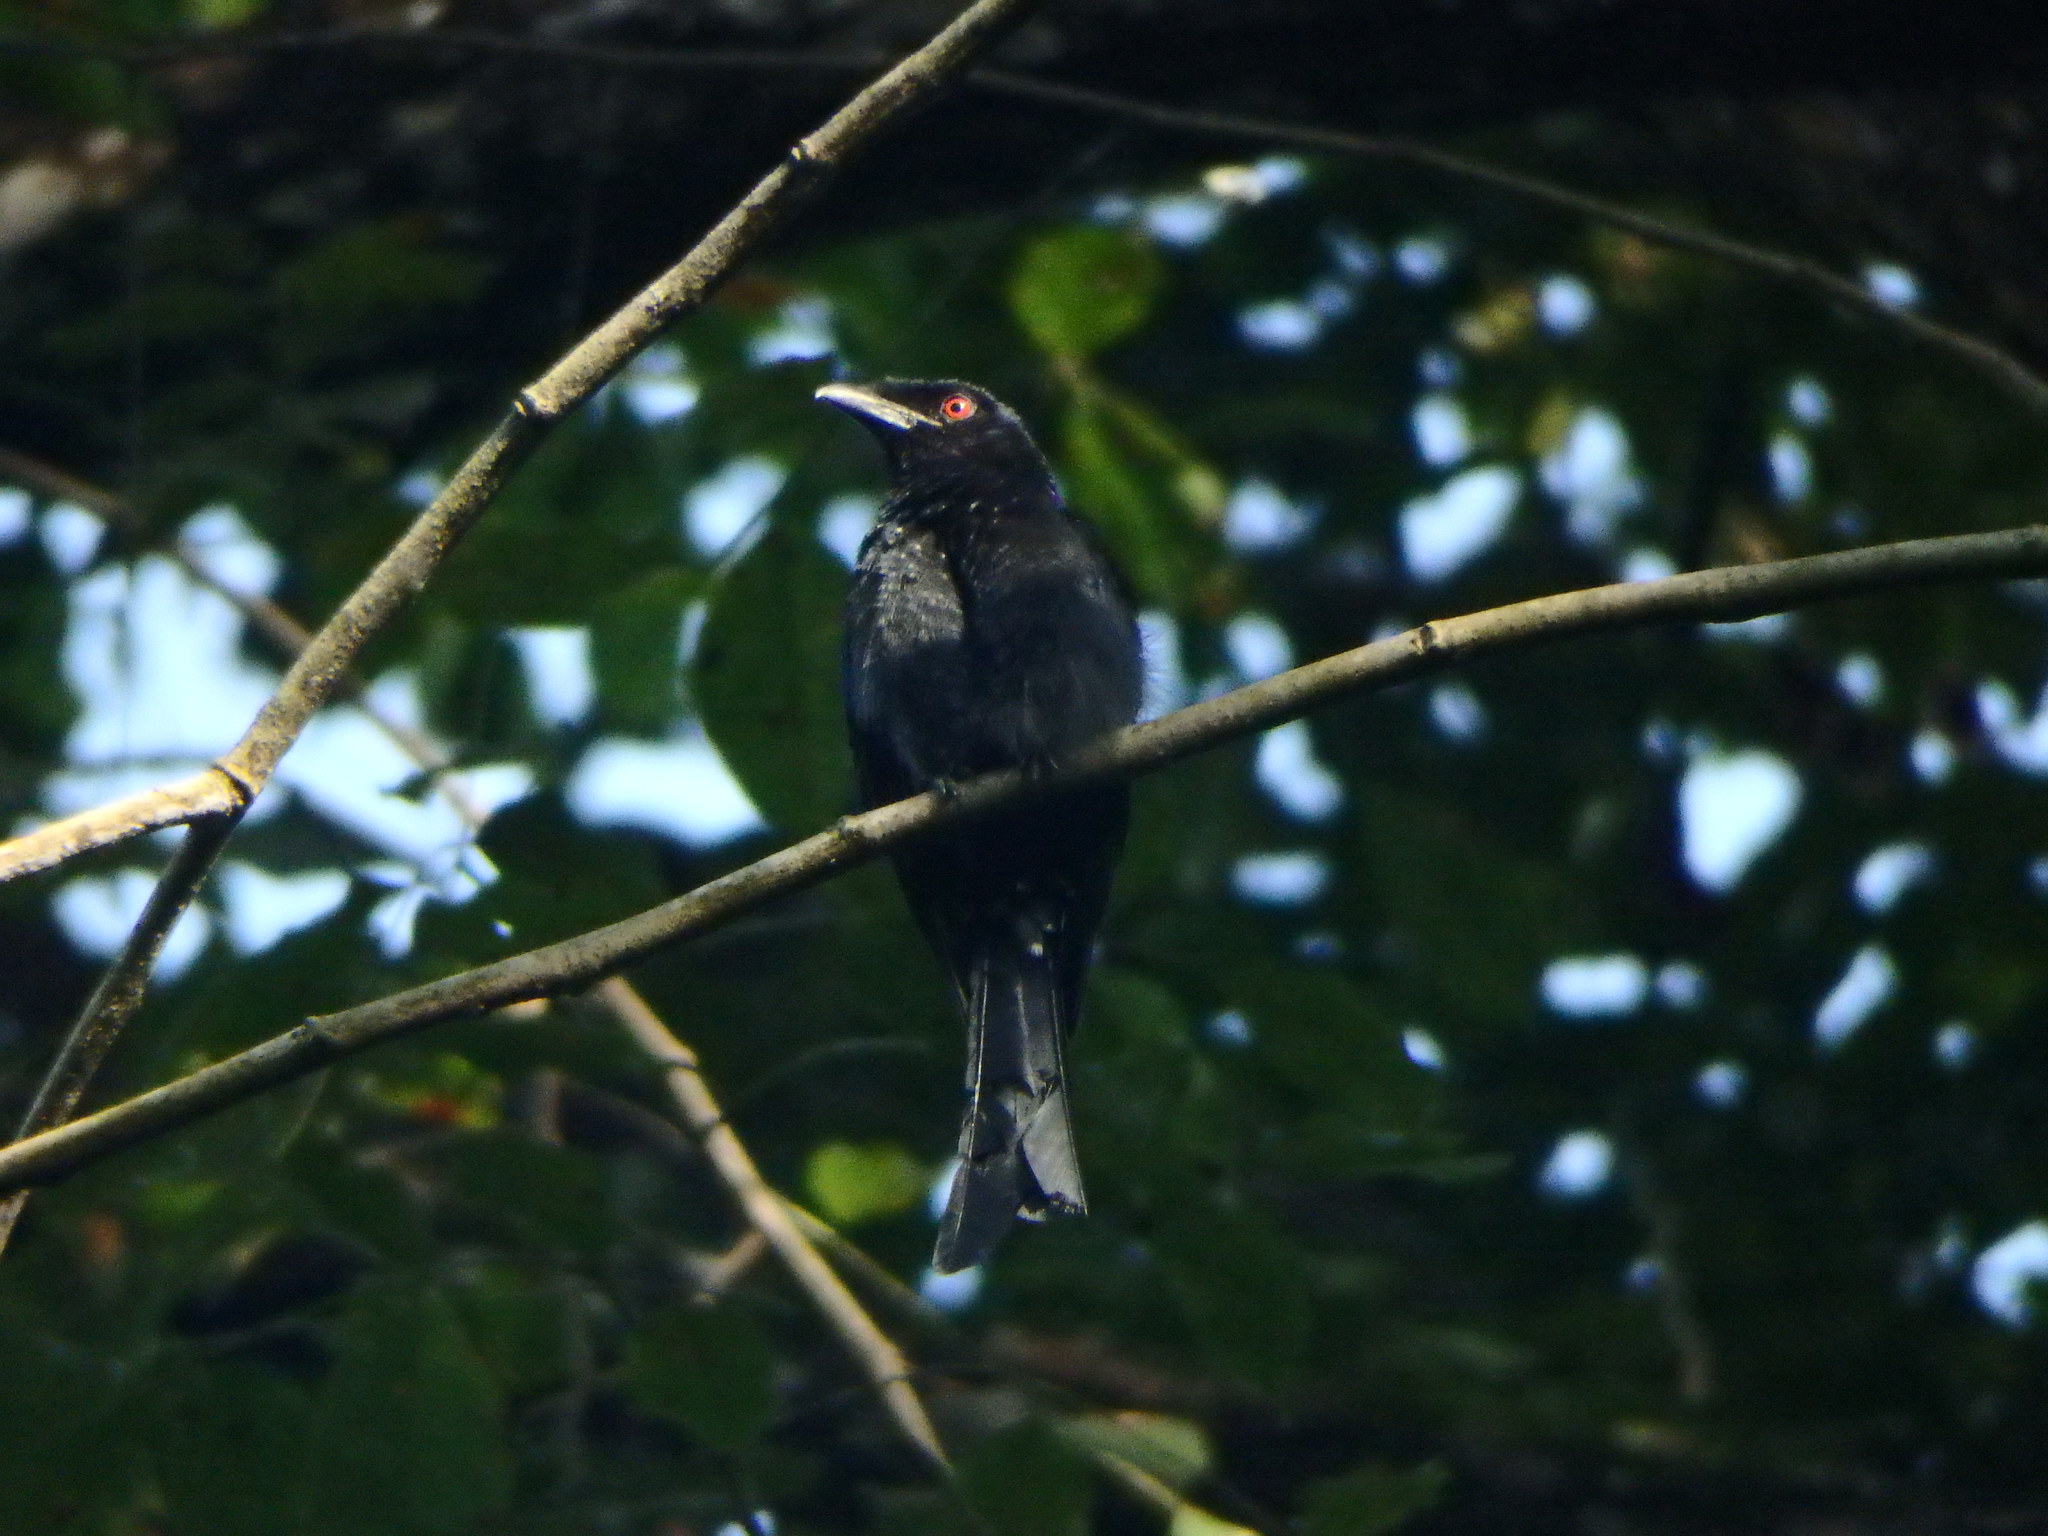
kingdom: Animalia
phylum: Chordata
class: Aves
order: Passeriformes
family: Dicruridae
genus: Dicrurus
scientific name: Dicrurus paradiseus
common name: Greater racket-tailed drongo
